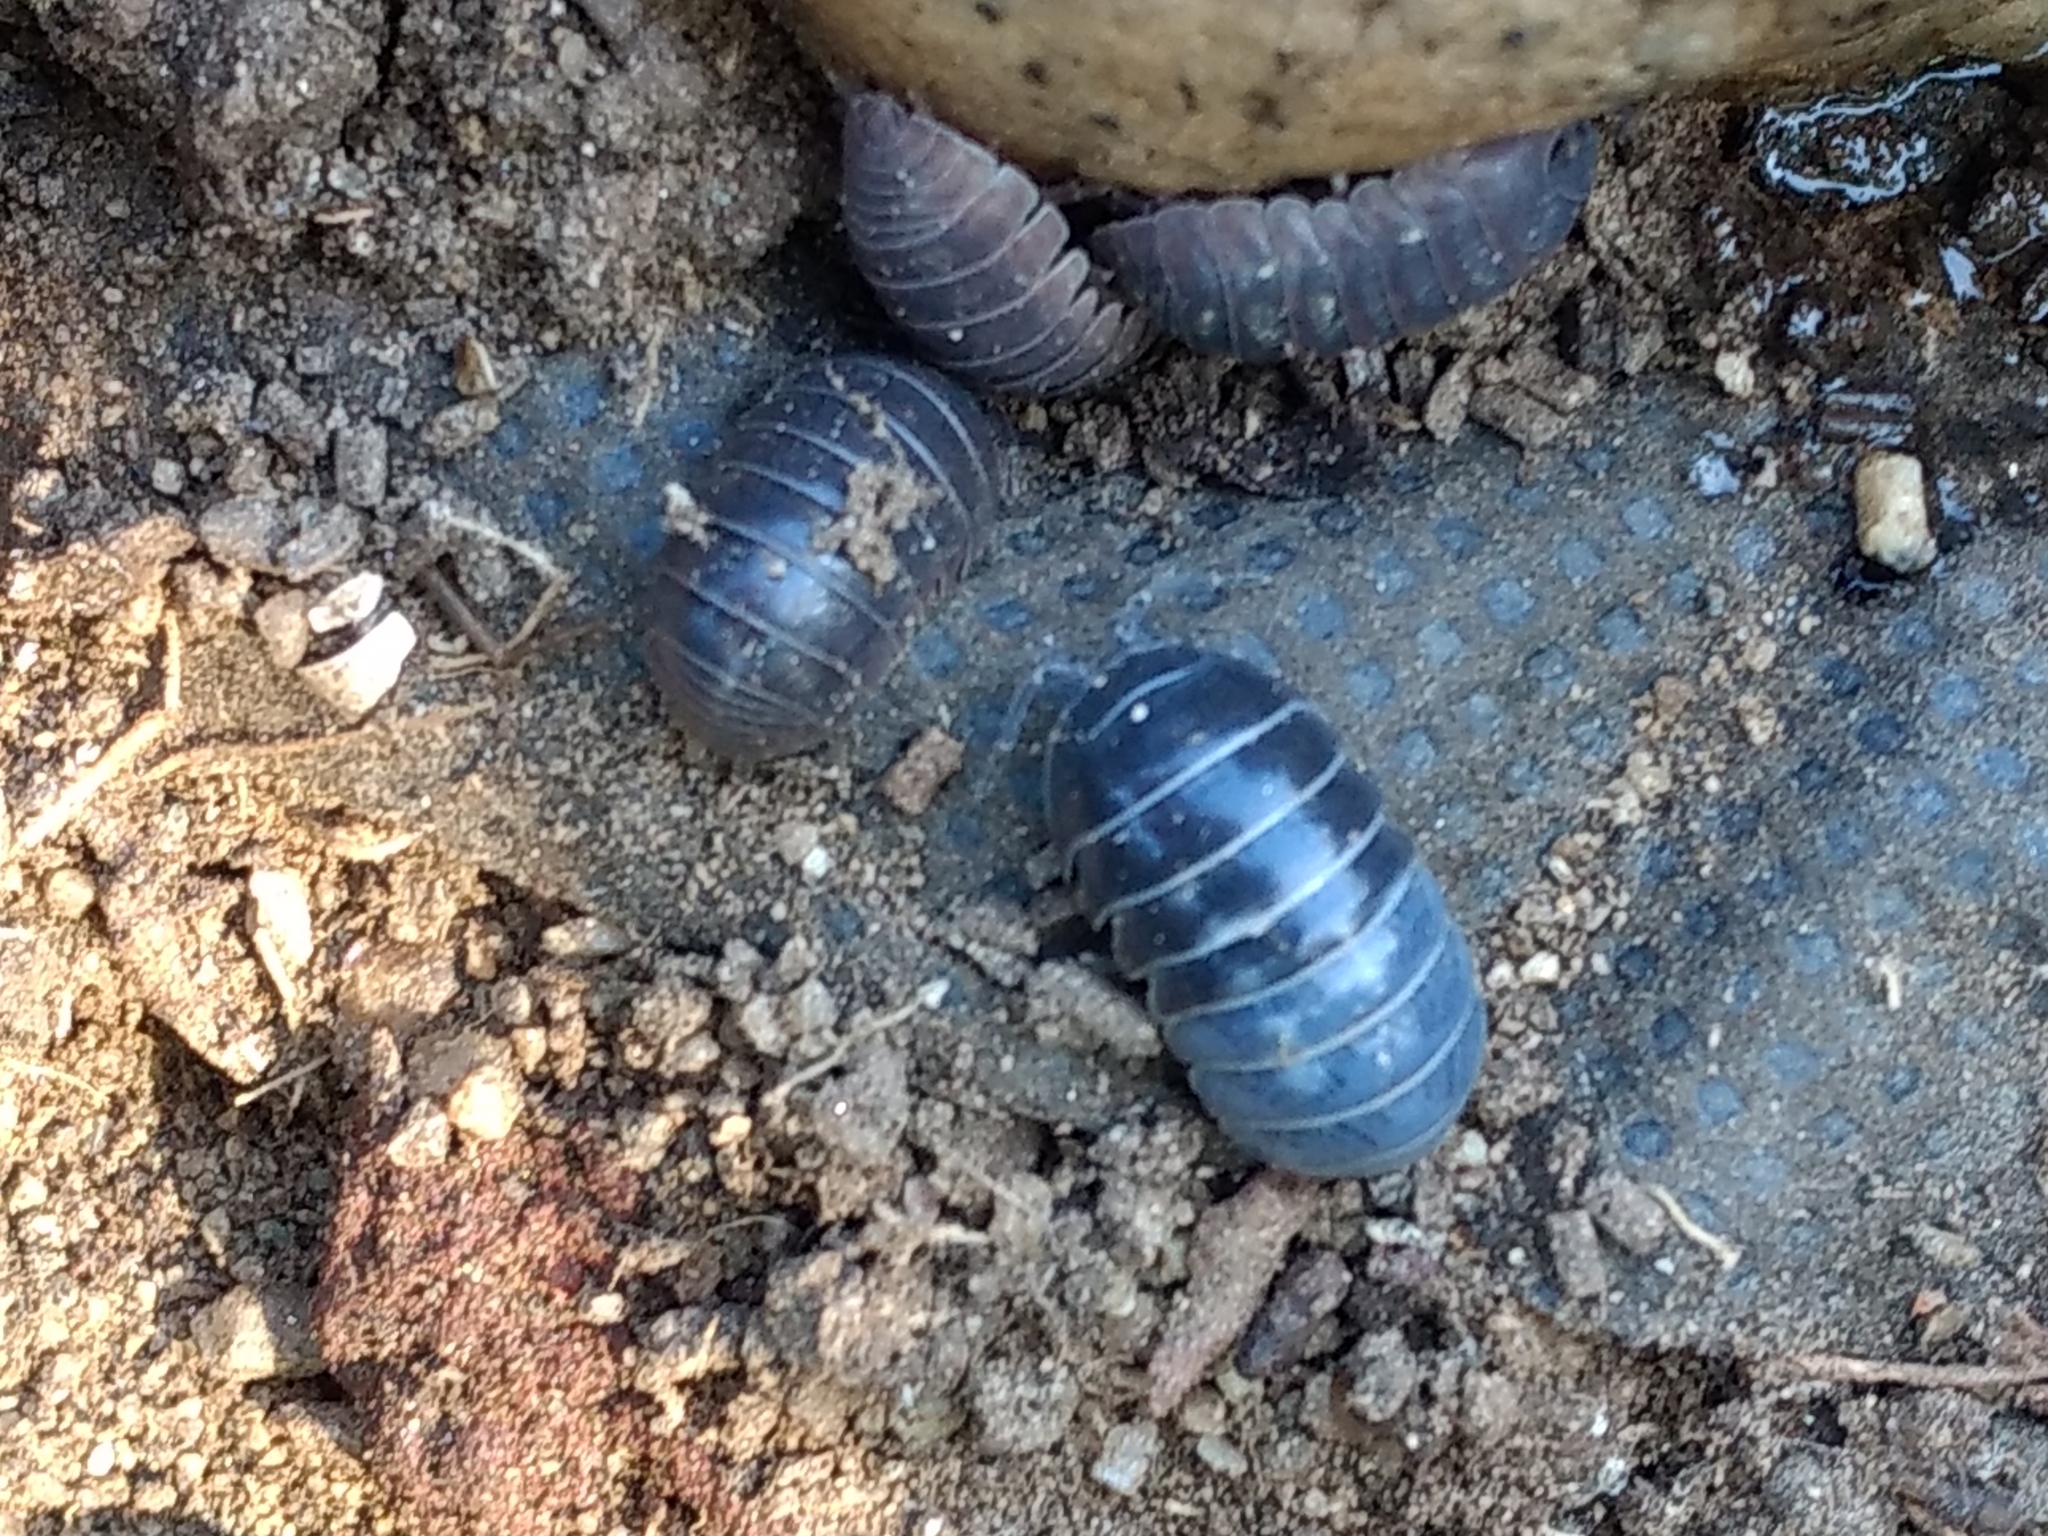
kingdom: Animalia
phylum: Arthropoda
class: Malacostraca
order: Isopoda
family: Armadillidiidae
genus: Armadillidium
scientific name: Armadillidium vulgare
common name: Common pill woodlouse
